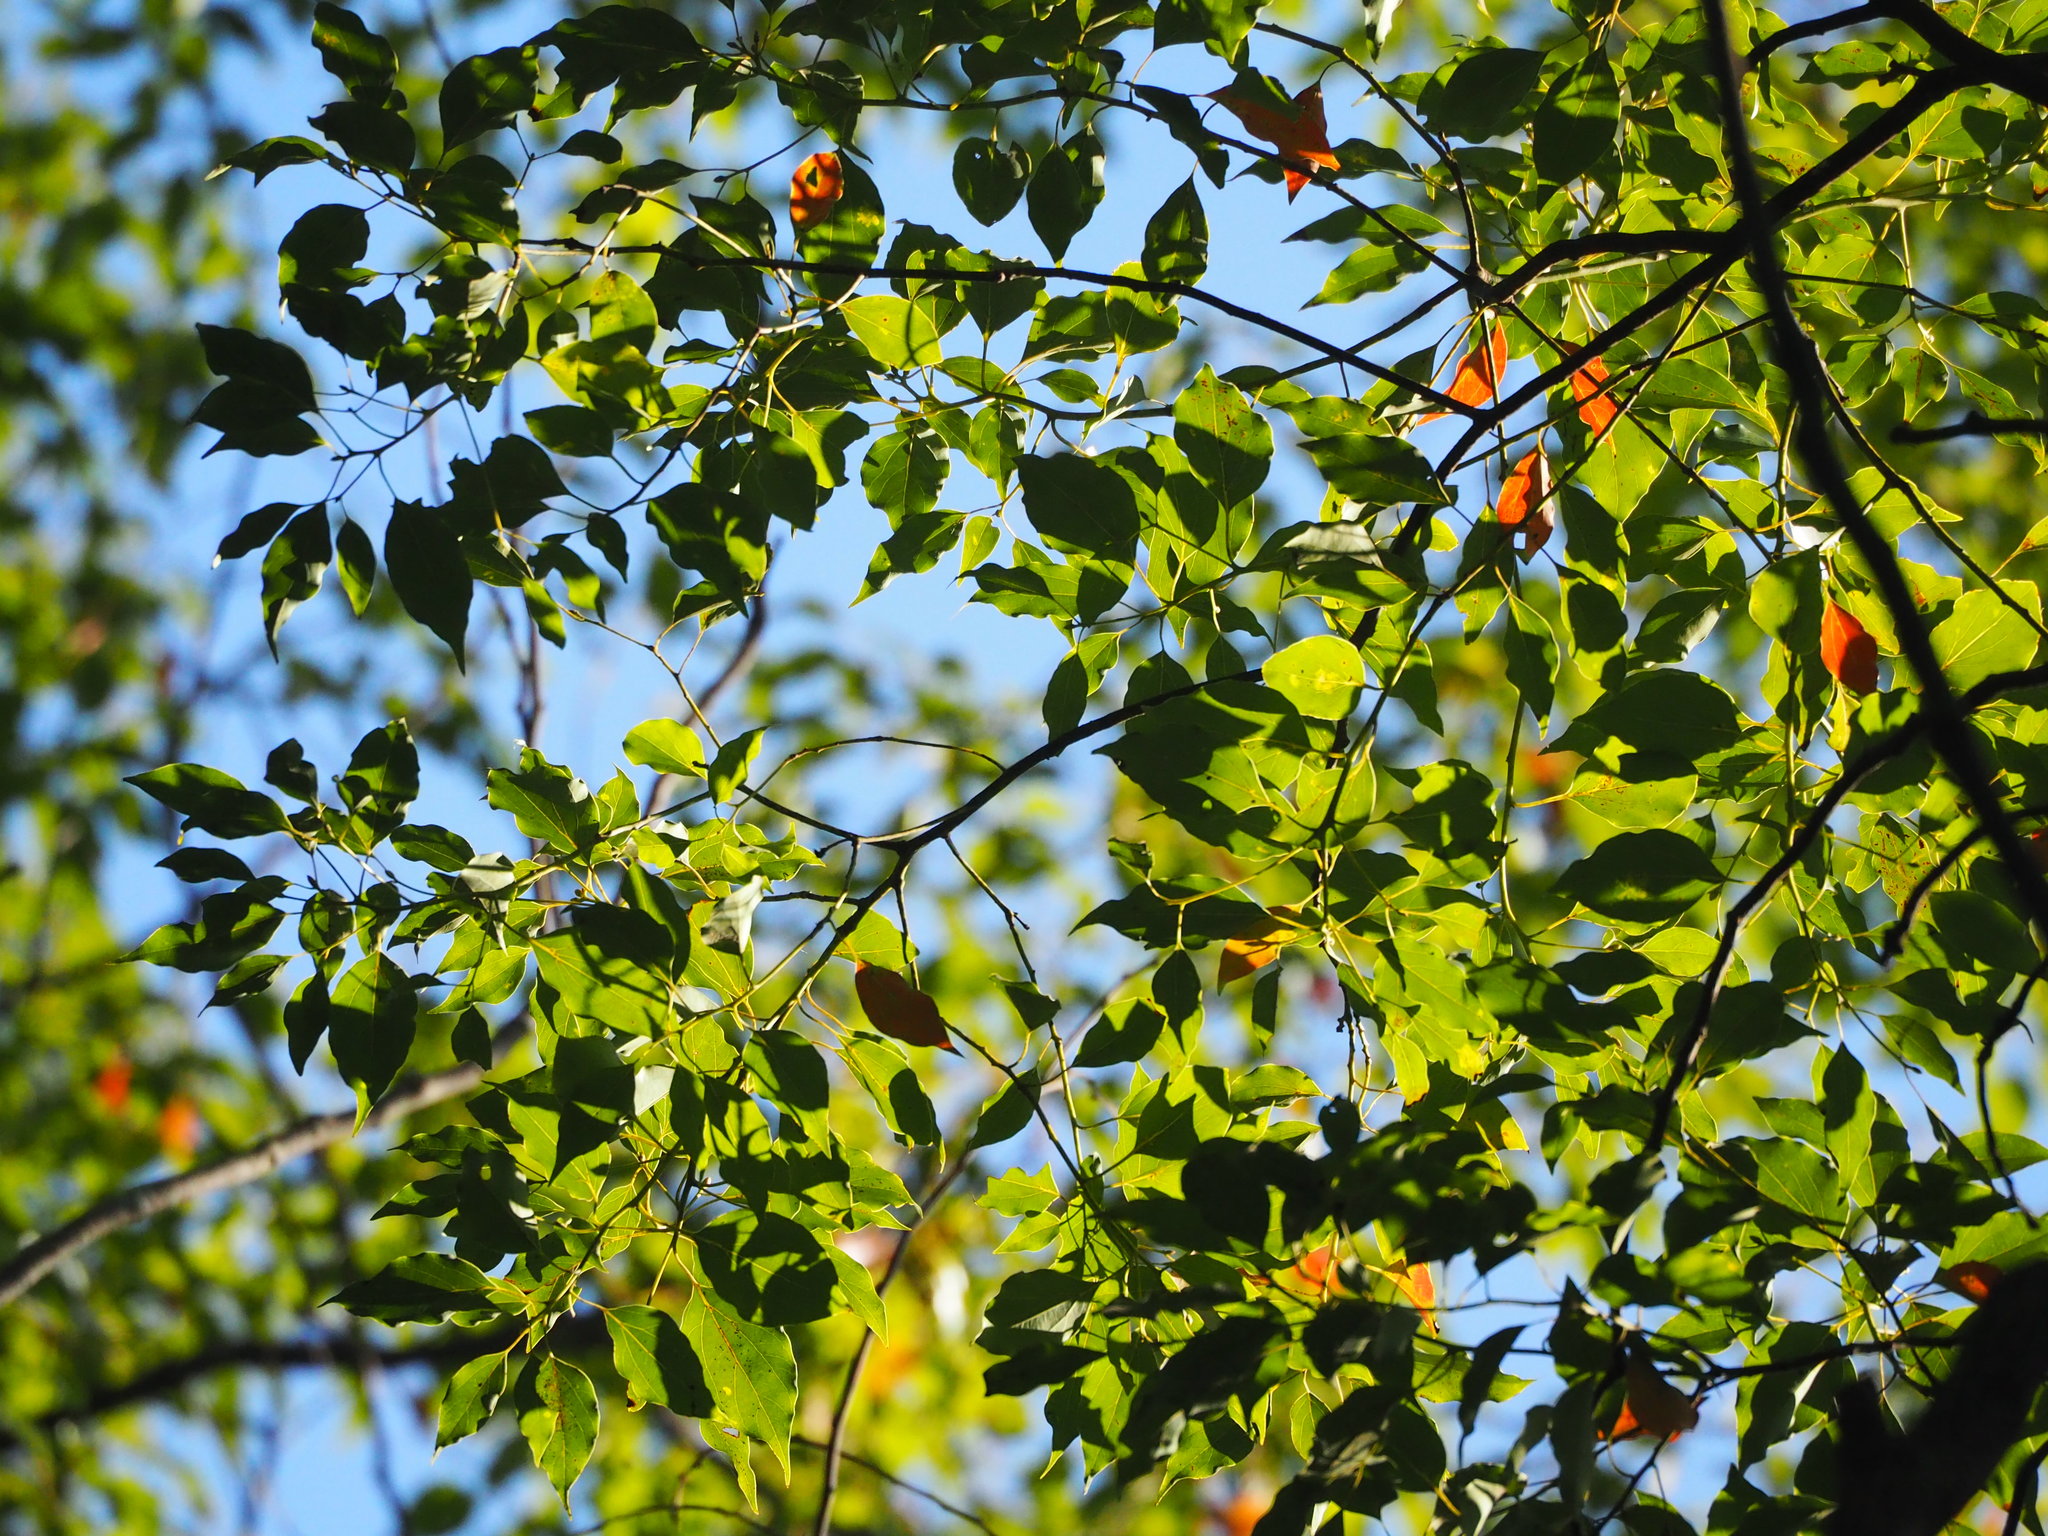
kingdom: Plantae
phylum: Tracheophyta
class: Magnoliopsida
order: Laurales
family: Lauraceae
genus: Cinnamomum
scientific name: Cinnamomum camphora
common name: Camphortree
